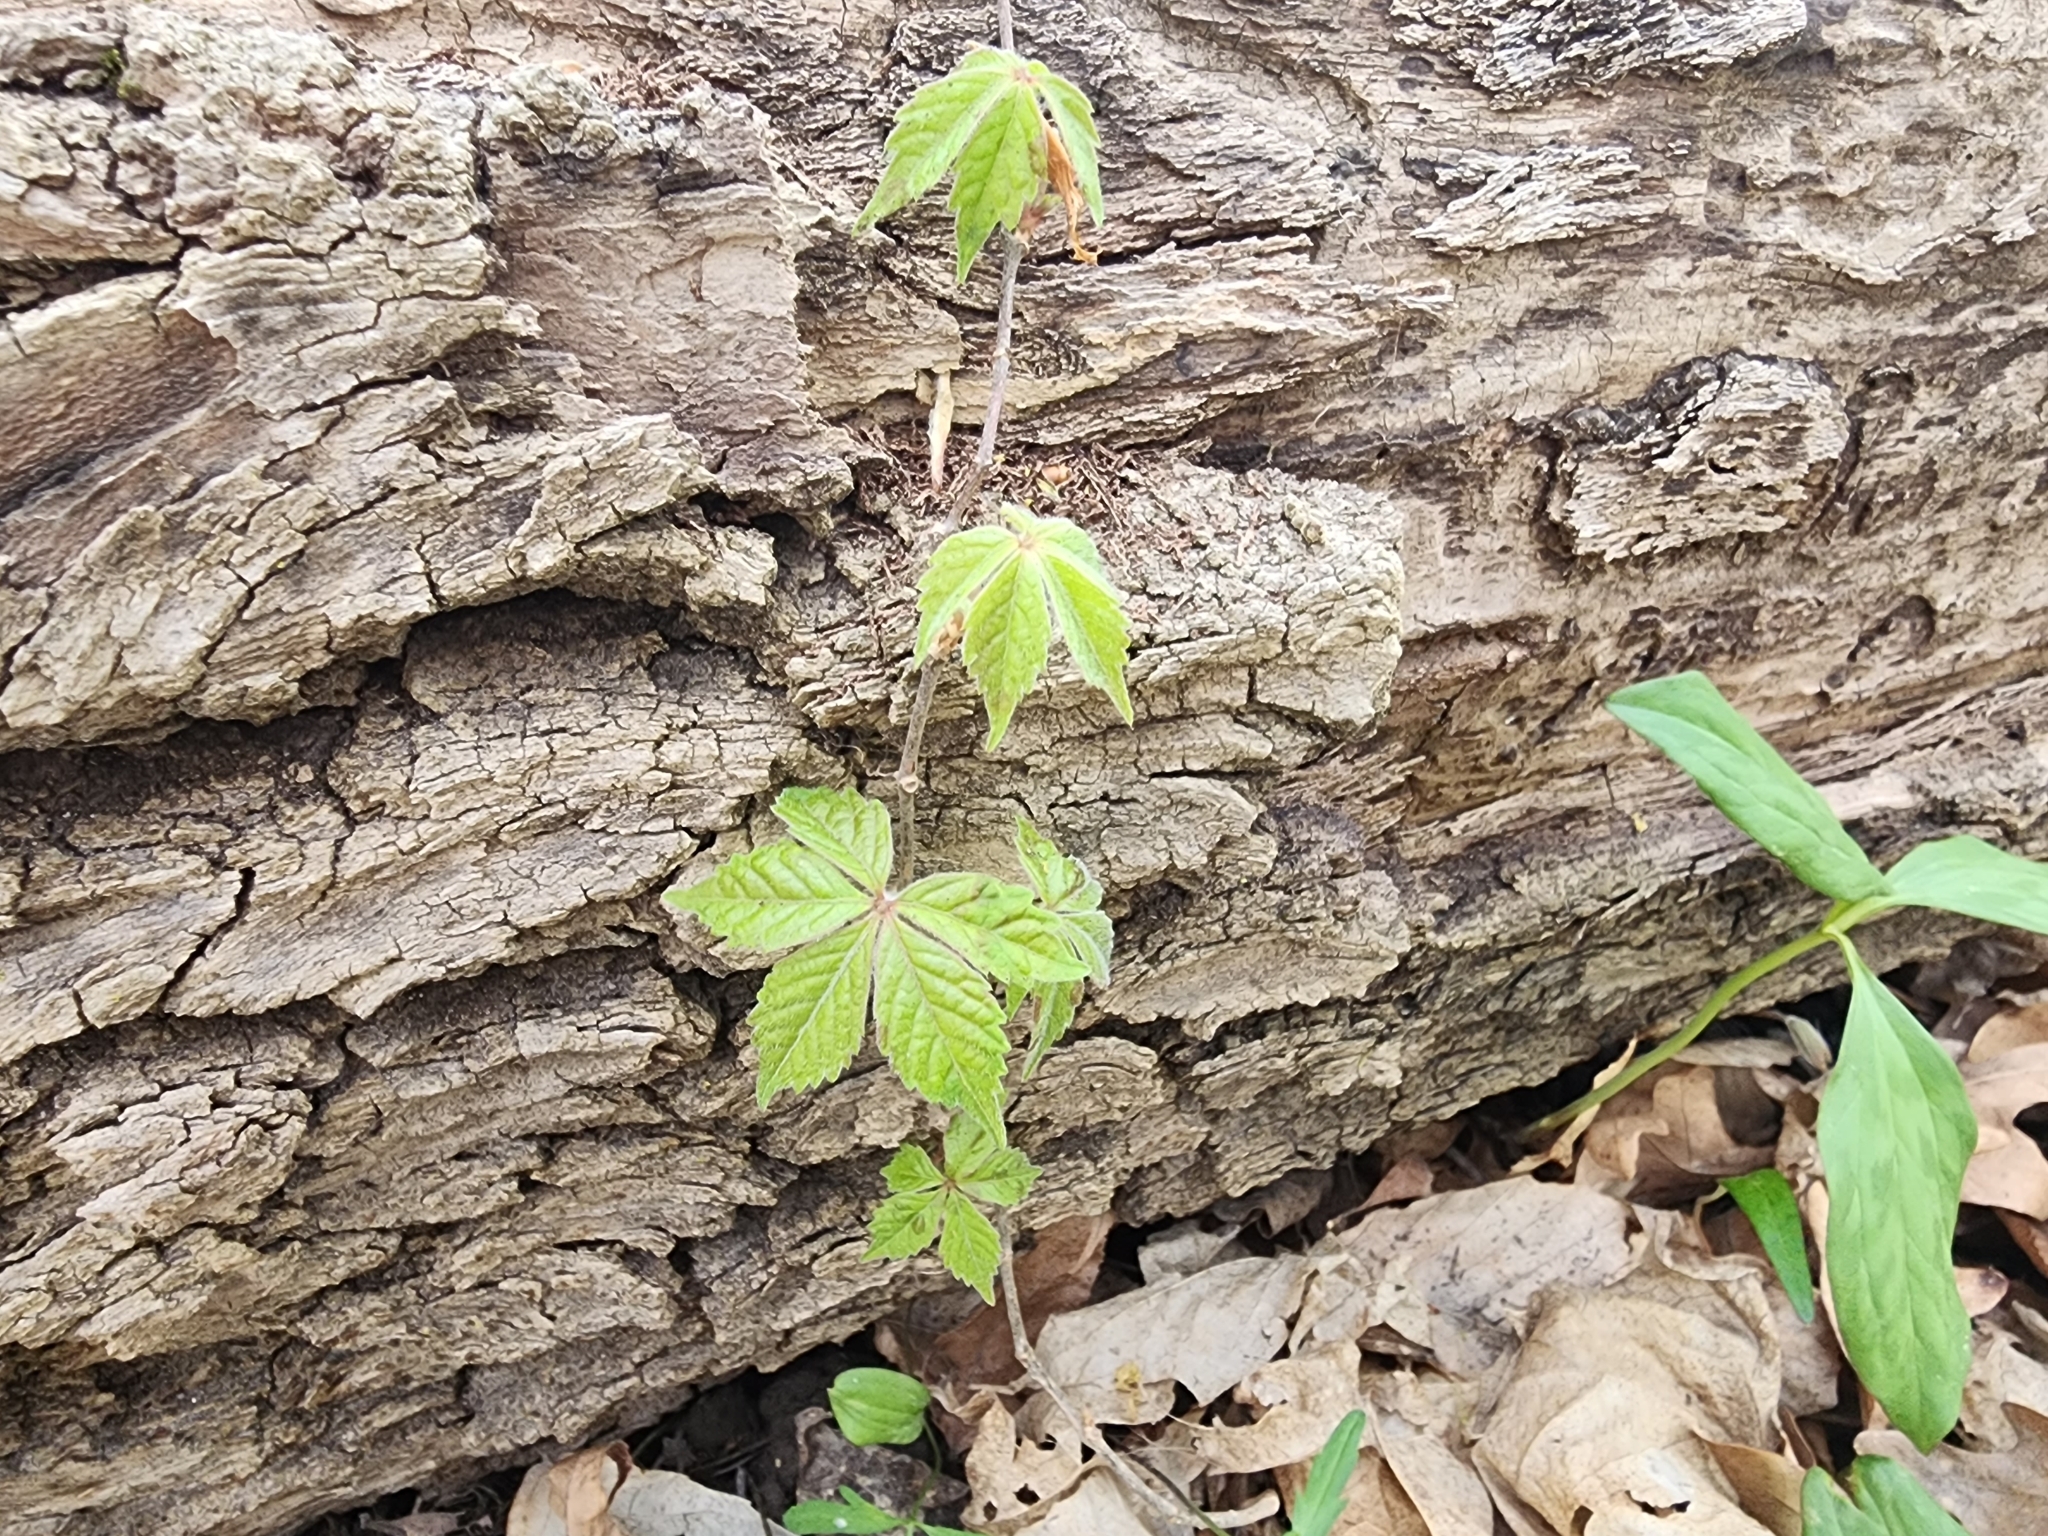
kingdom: Plantae
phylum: Tracheophyta
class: Magnoliopsida
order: Vitales
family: Vitaceae
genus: Parthenocissus
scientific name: Parthenocissus quinquefolia
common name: Virginia-creeper
